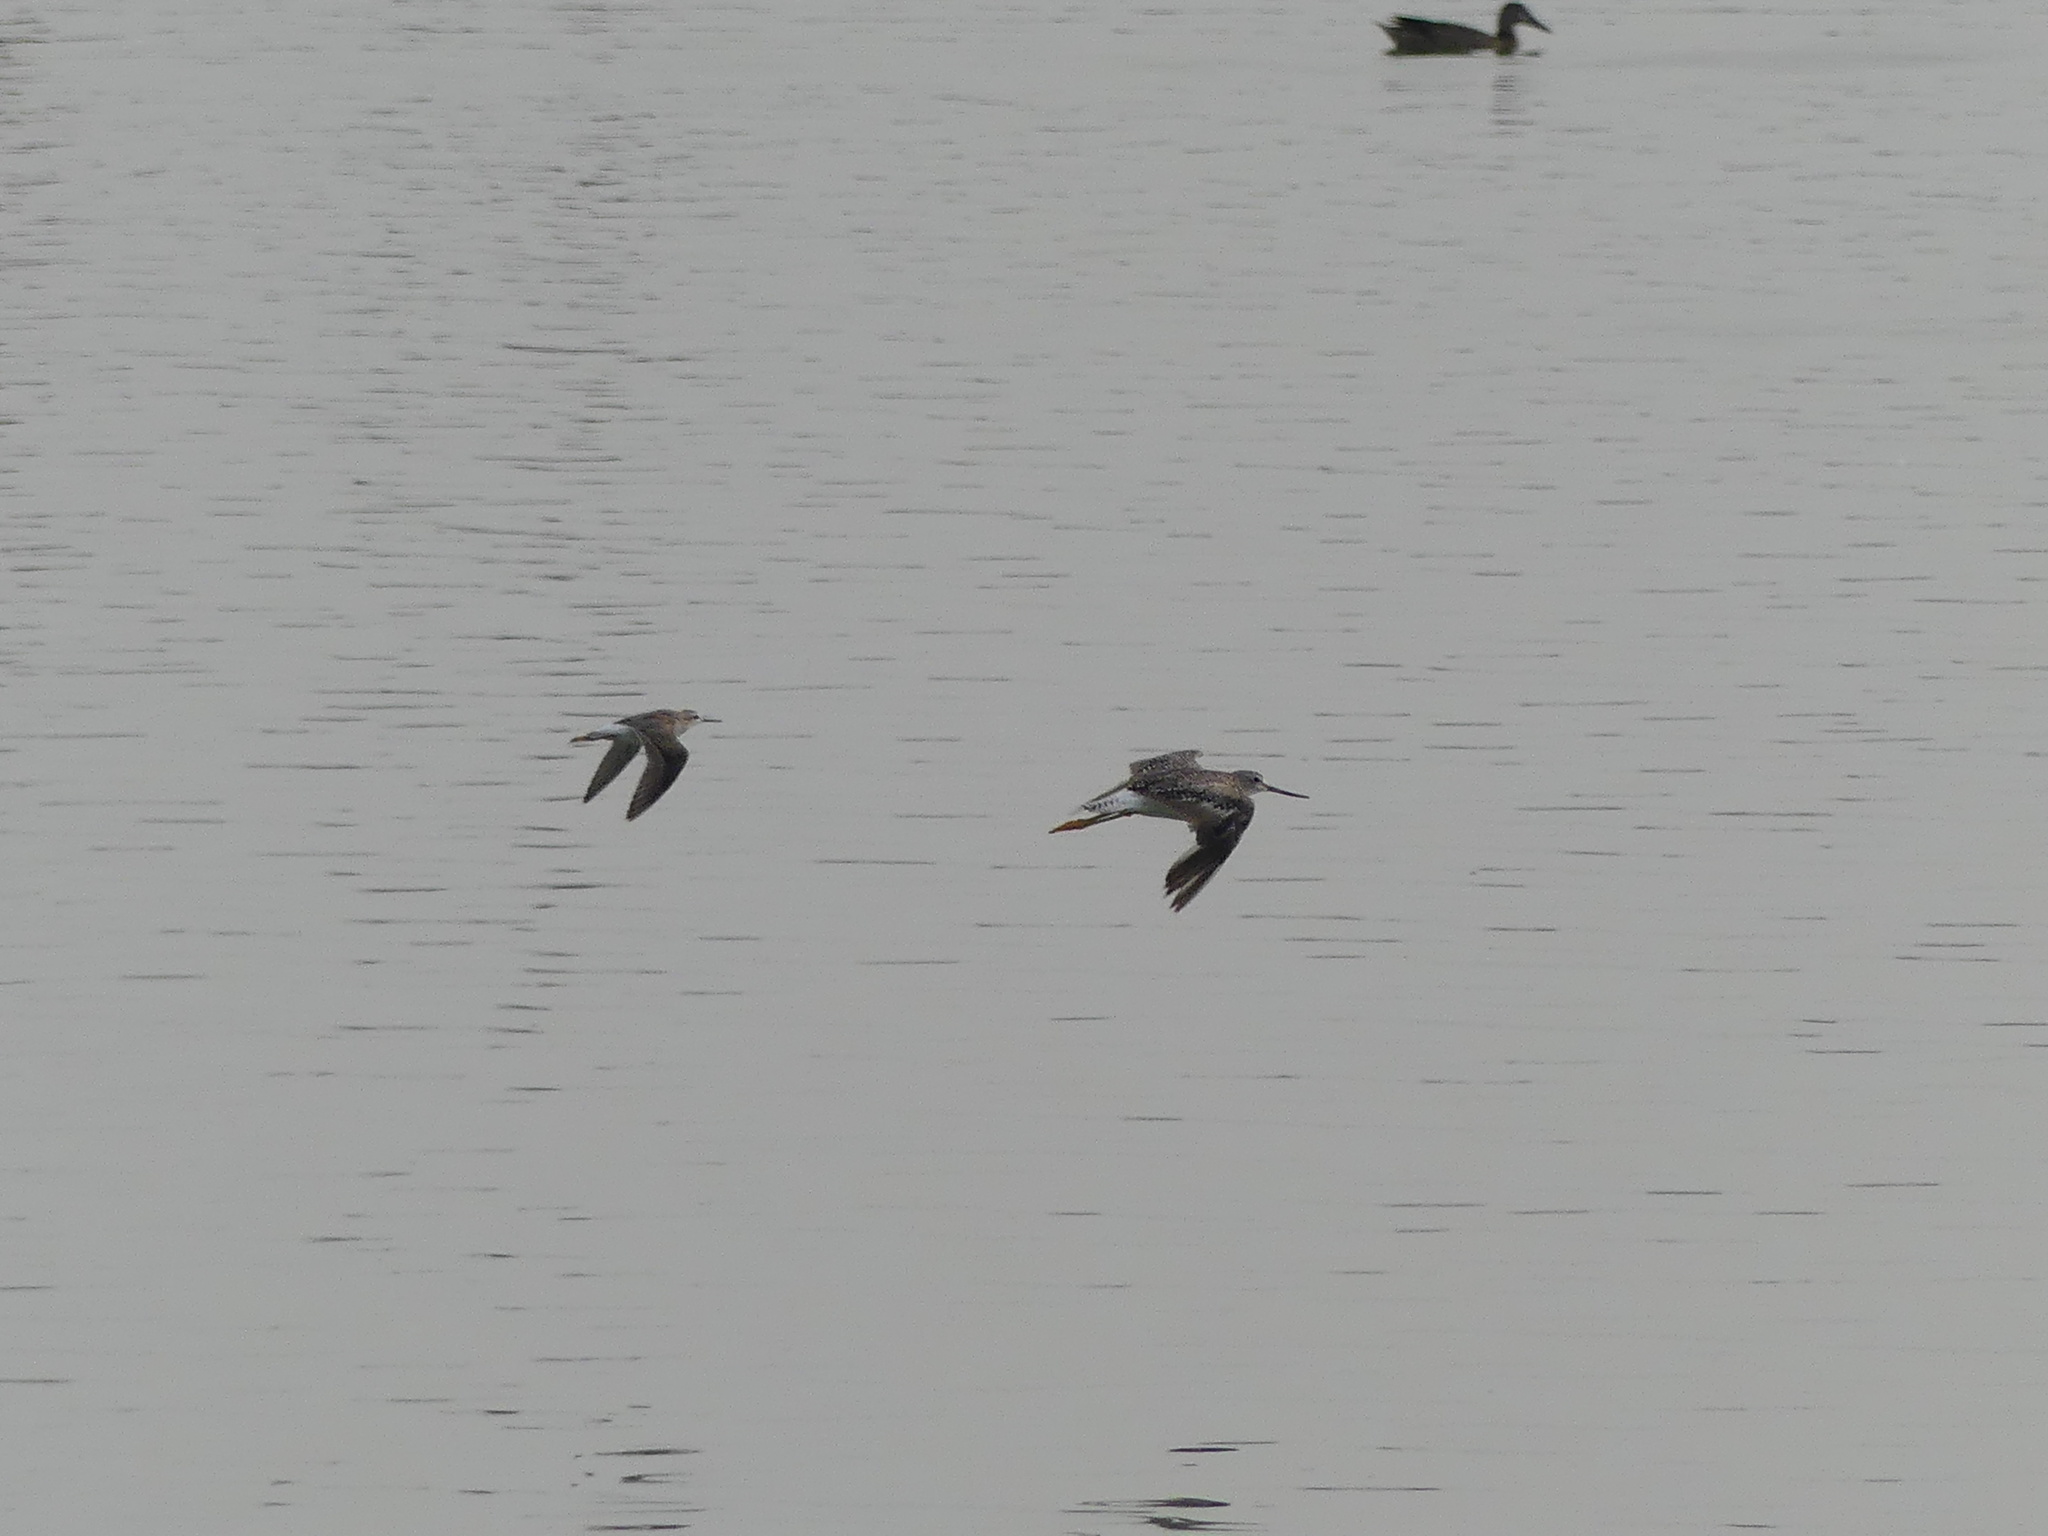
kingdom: Animalia
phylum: Chordata
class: Aves
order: Charadriiformes
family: Scolopacidae
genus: Tringa
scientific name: Tringa flavipes
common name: Lesser yellowlegs
